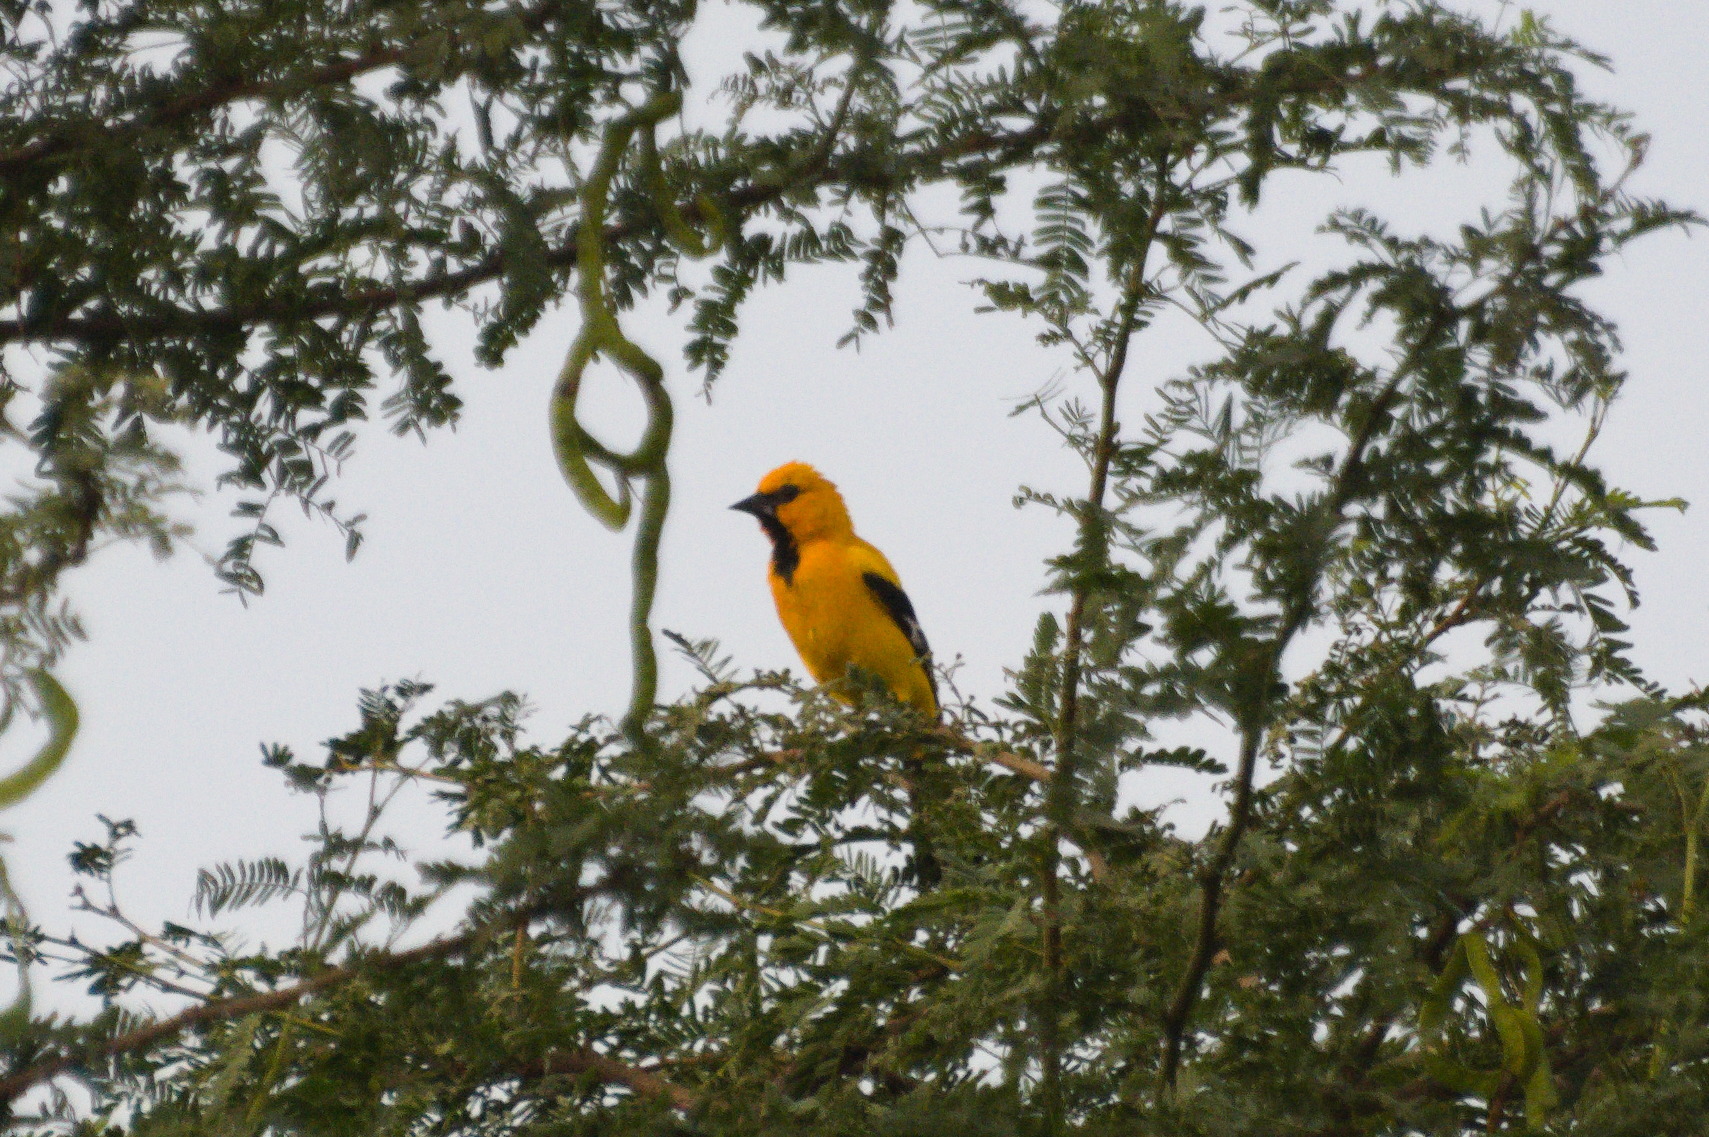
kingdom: Animalia
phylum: Chordata
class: Aves
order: Passeriformes
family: Icteridae
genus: Icterus
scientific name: Icterus nigrogularis
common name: Yellow oriole
